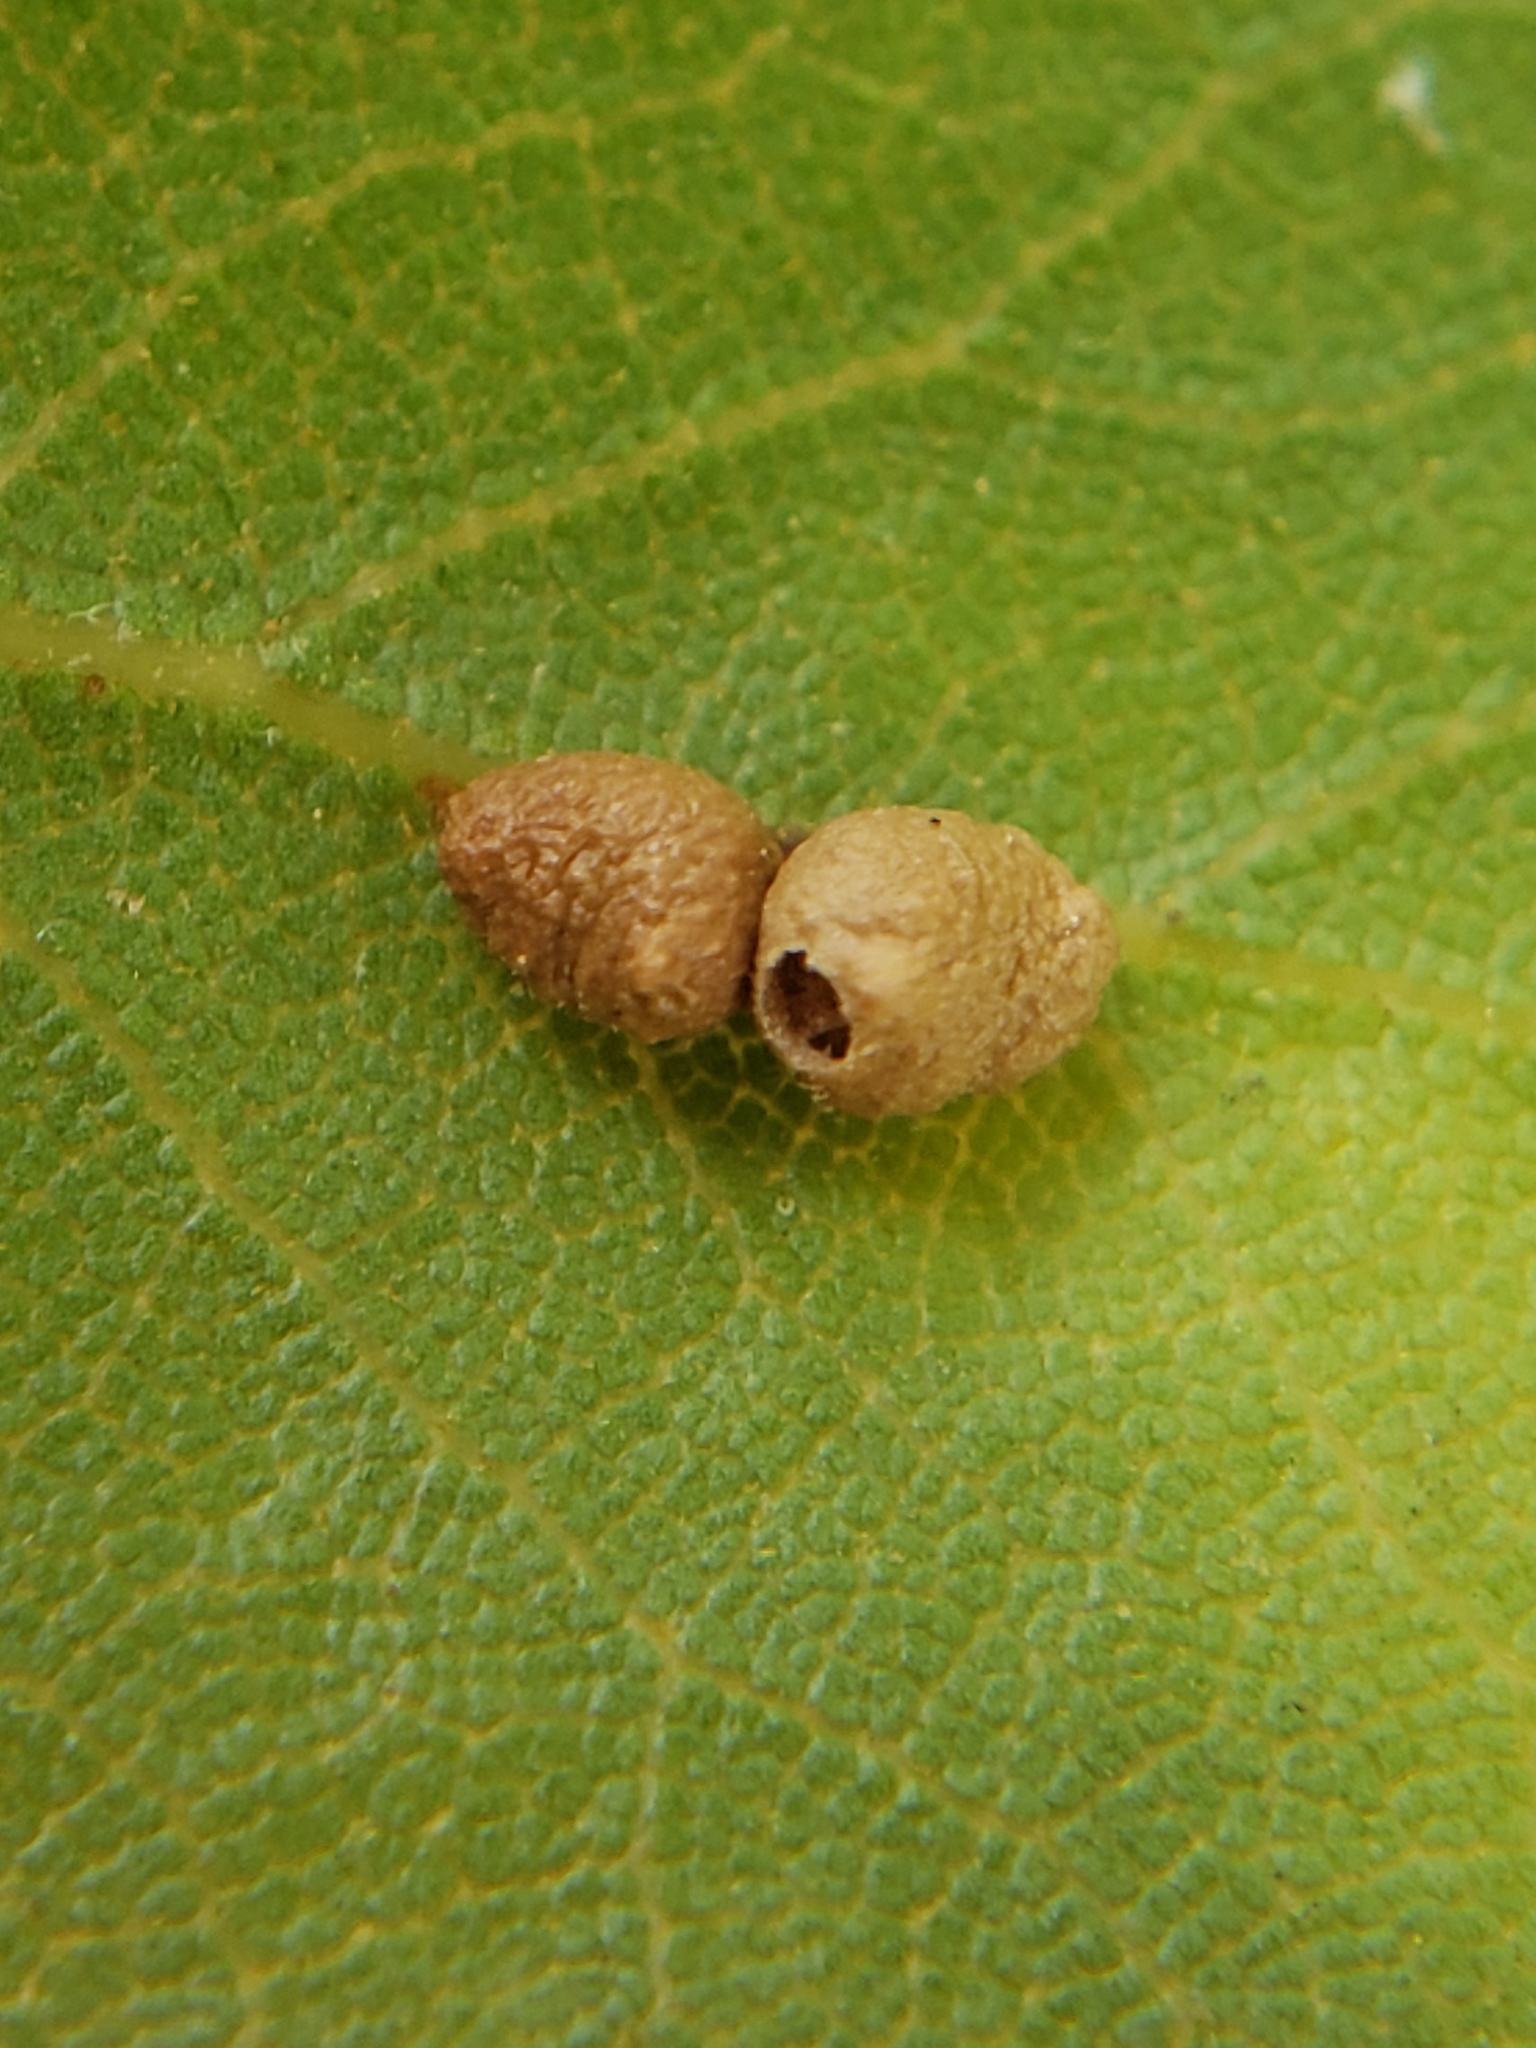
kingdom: Animalia
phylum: Arthropoda
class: Insecta
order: Hymenoptera
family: Cynipidae
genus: Dryocosmus
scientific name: Dryocosmus
